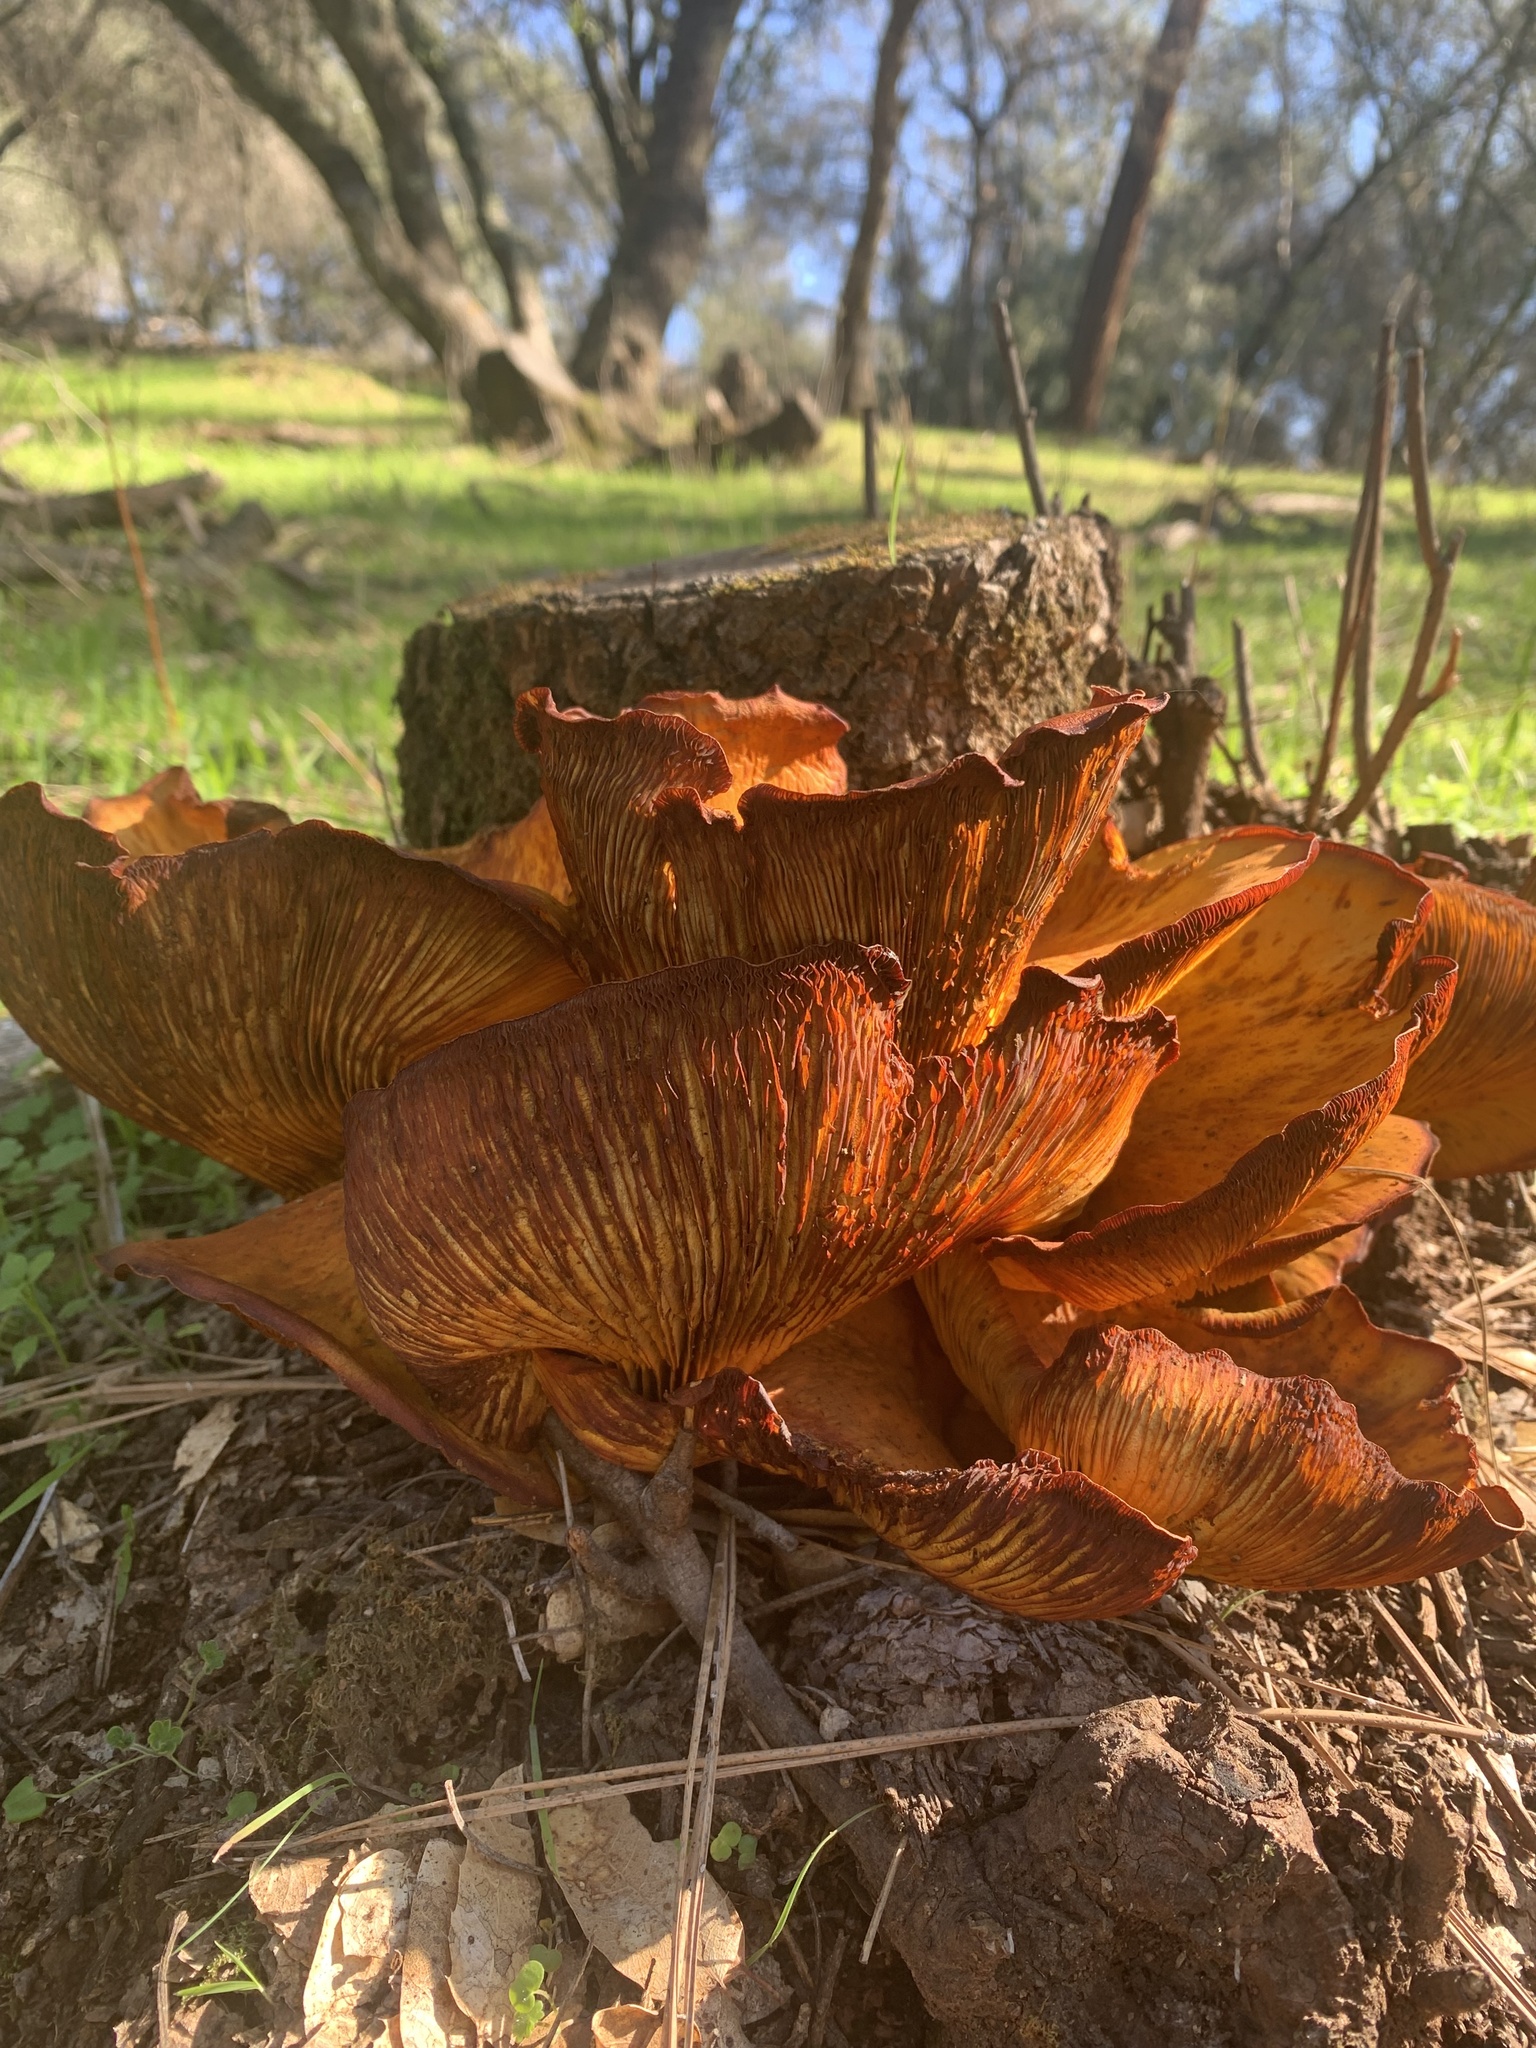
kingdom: Fungi
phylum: Basidiomycota
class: Agaricomycetes
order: Agaricales
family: Omphalotaceae
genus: Omphalotus
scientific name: Omphalotus olivascens
